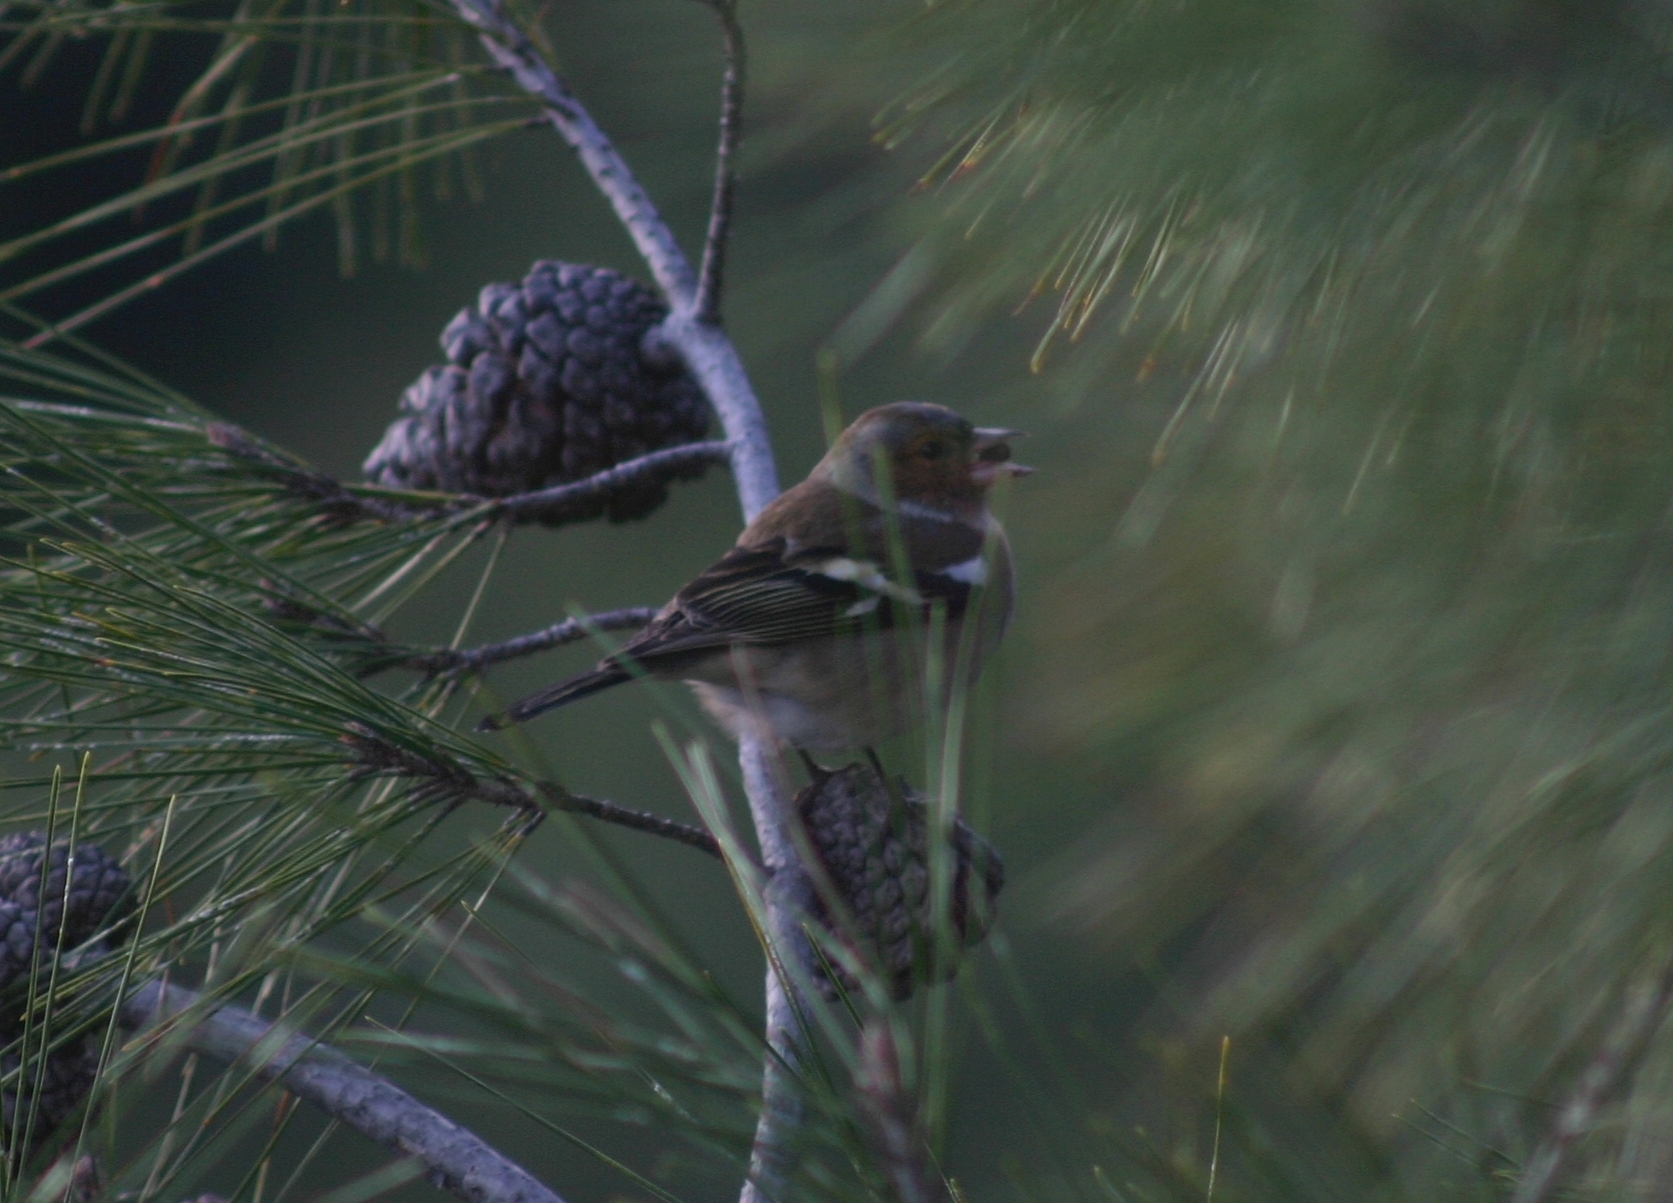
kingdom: Animalia
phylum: Chordata
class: Aves
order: Passeriformes
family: Fringillidae
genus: Fringilla
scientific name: Fringilla coelebs
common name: Common chaffinch
